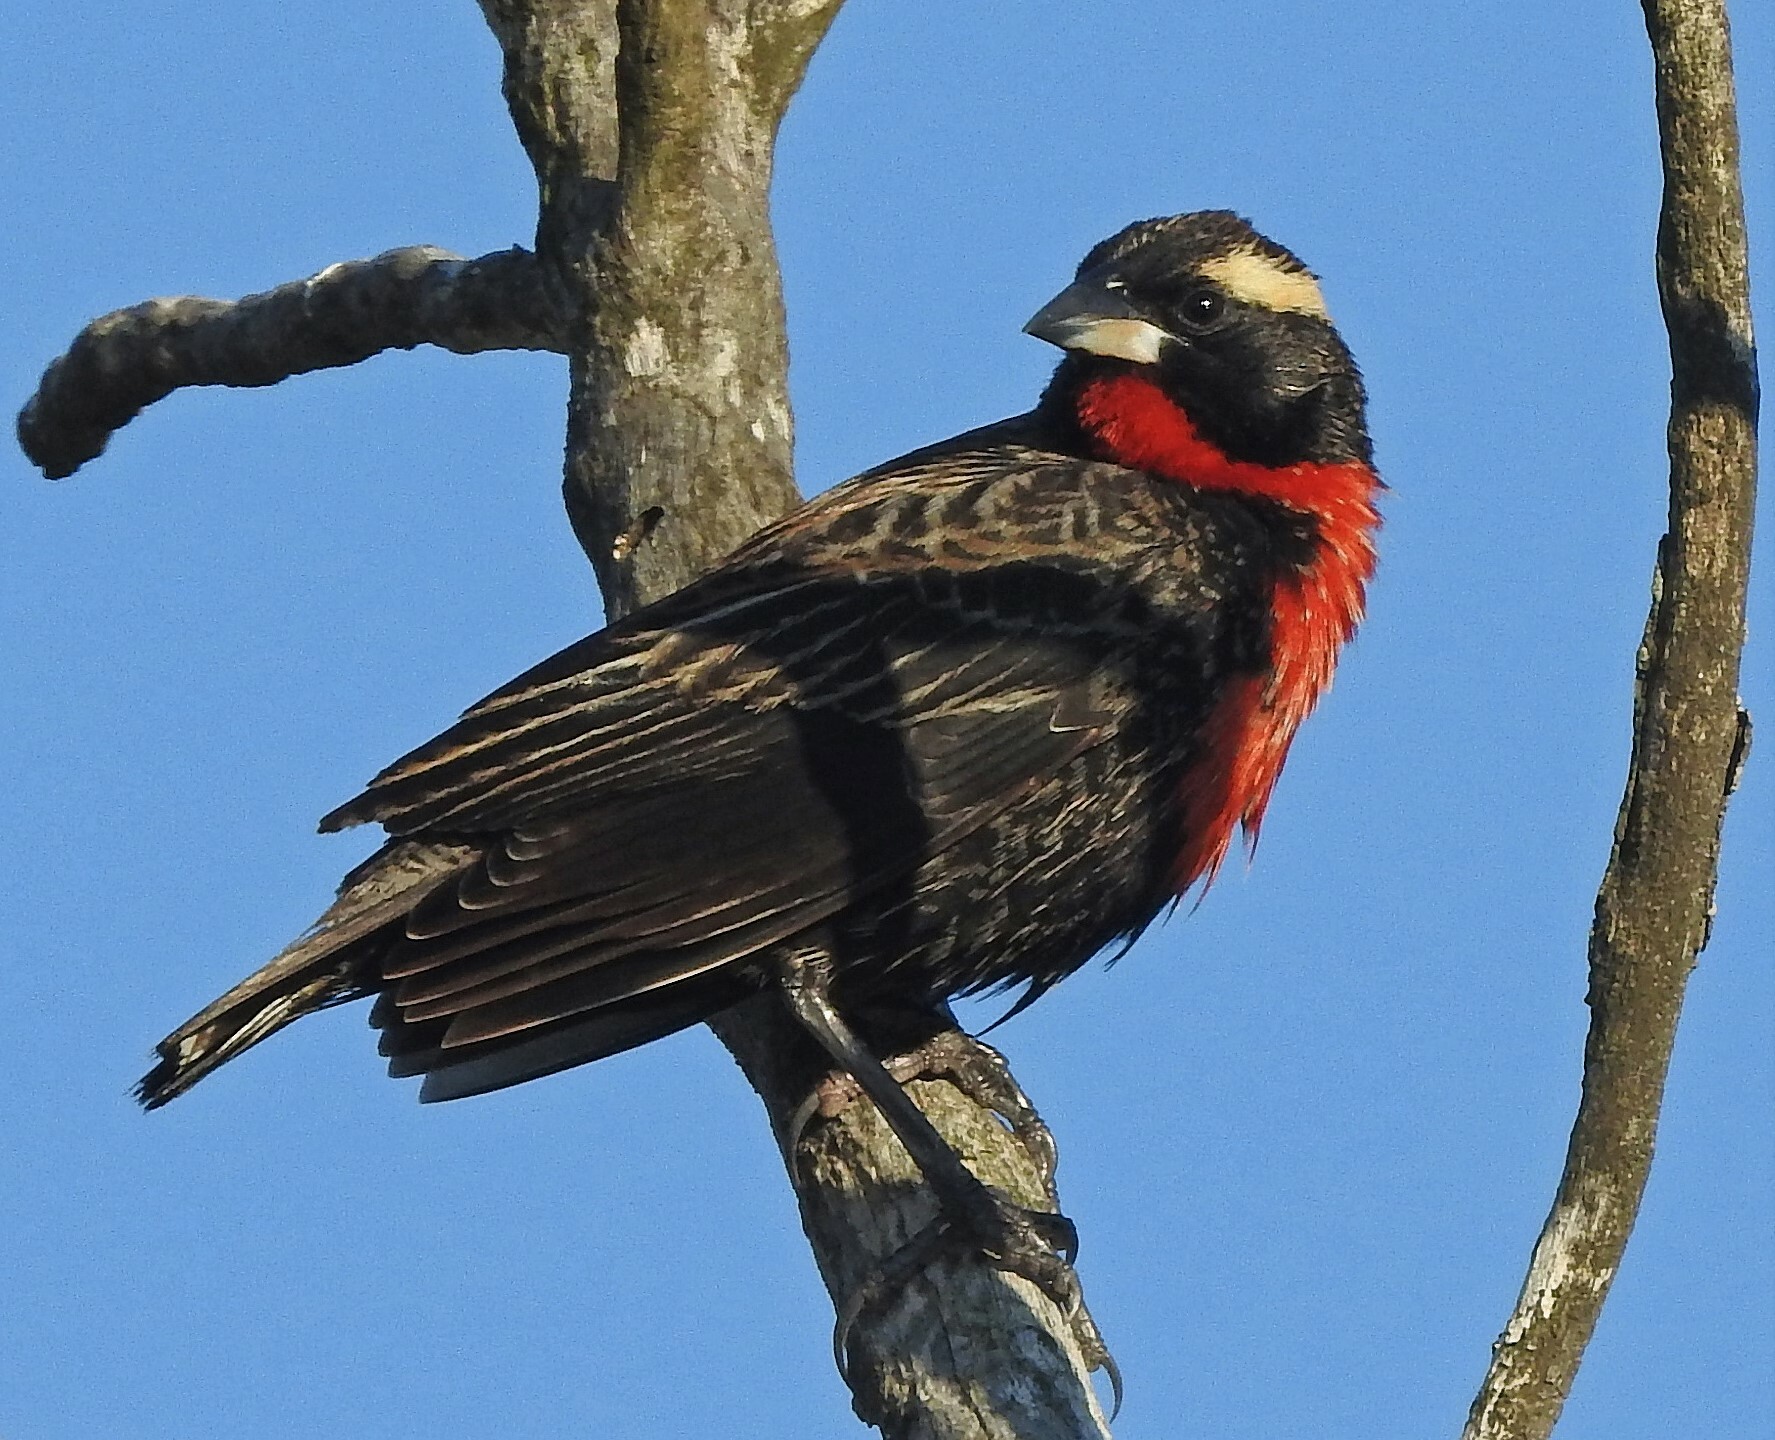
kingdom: Animalia
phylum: Chordata
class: Aves
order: Passeriformes
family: Icteridae
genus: Sturnella
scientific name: Sturnella superciliaris
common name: White-browed blackbird
